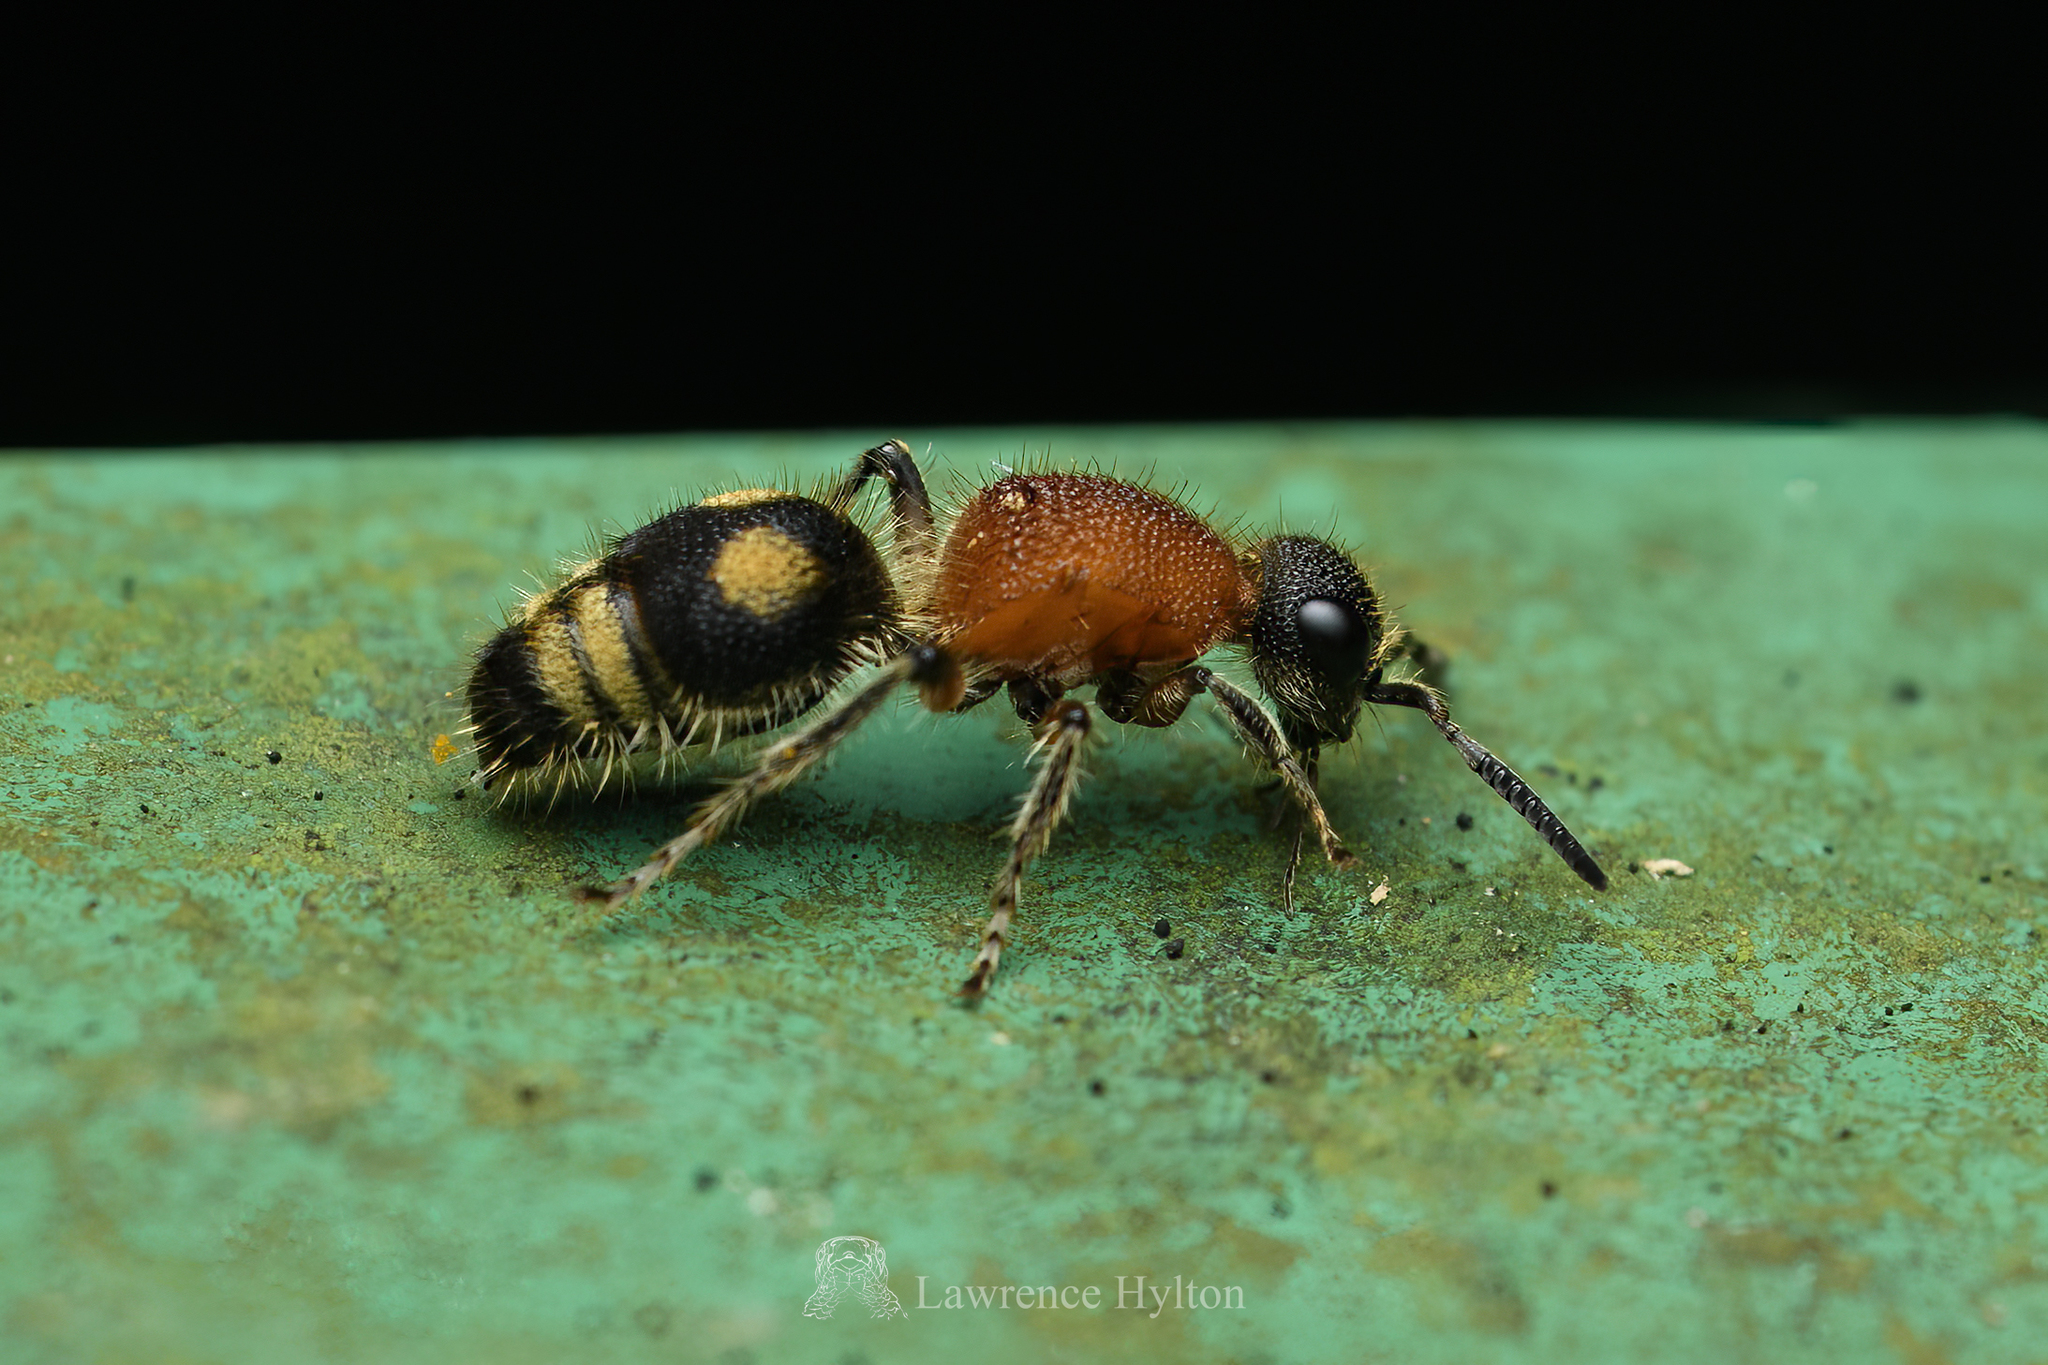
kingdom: Animalia
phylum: Arthropoda
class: Insecta
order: Hymenoptera
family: Mutillidae
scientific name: Mutillidae
